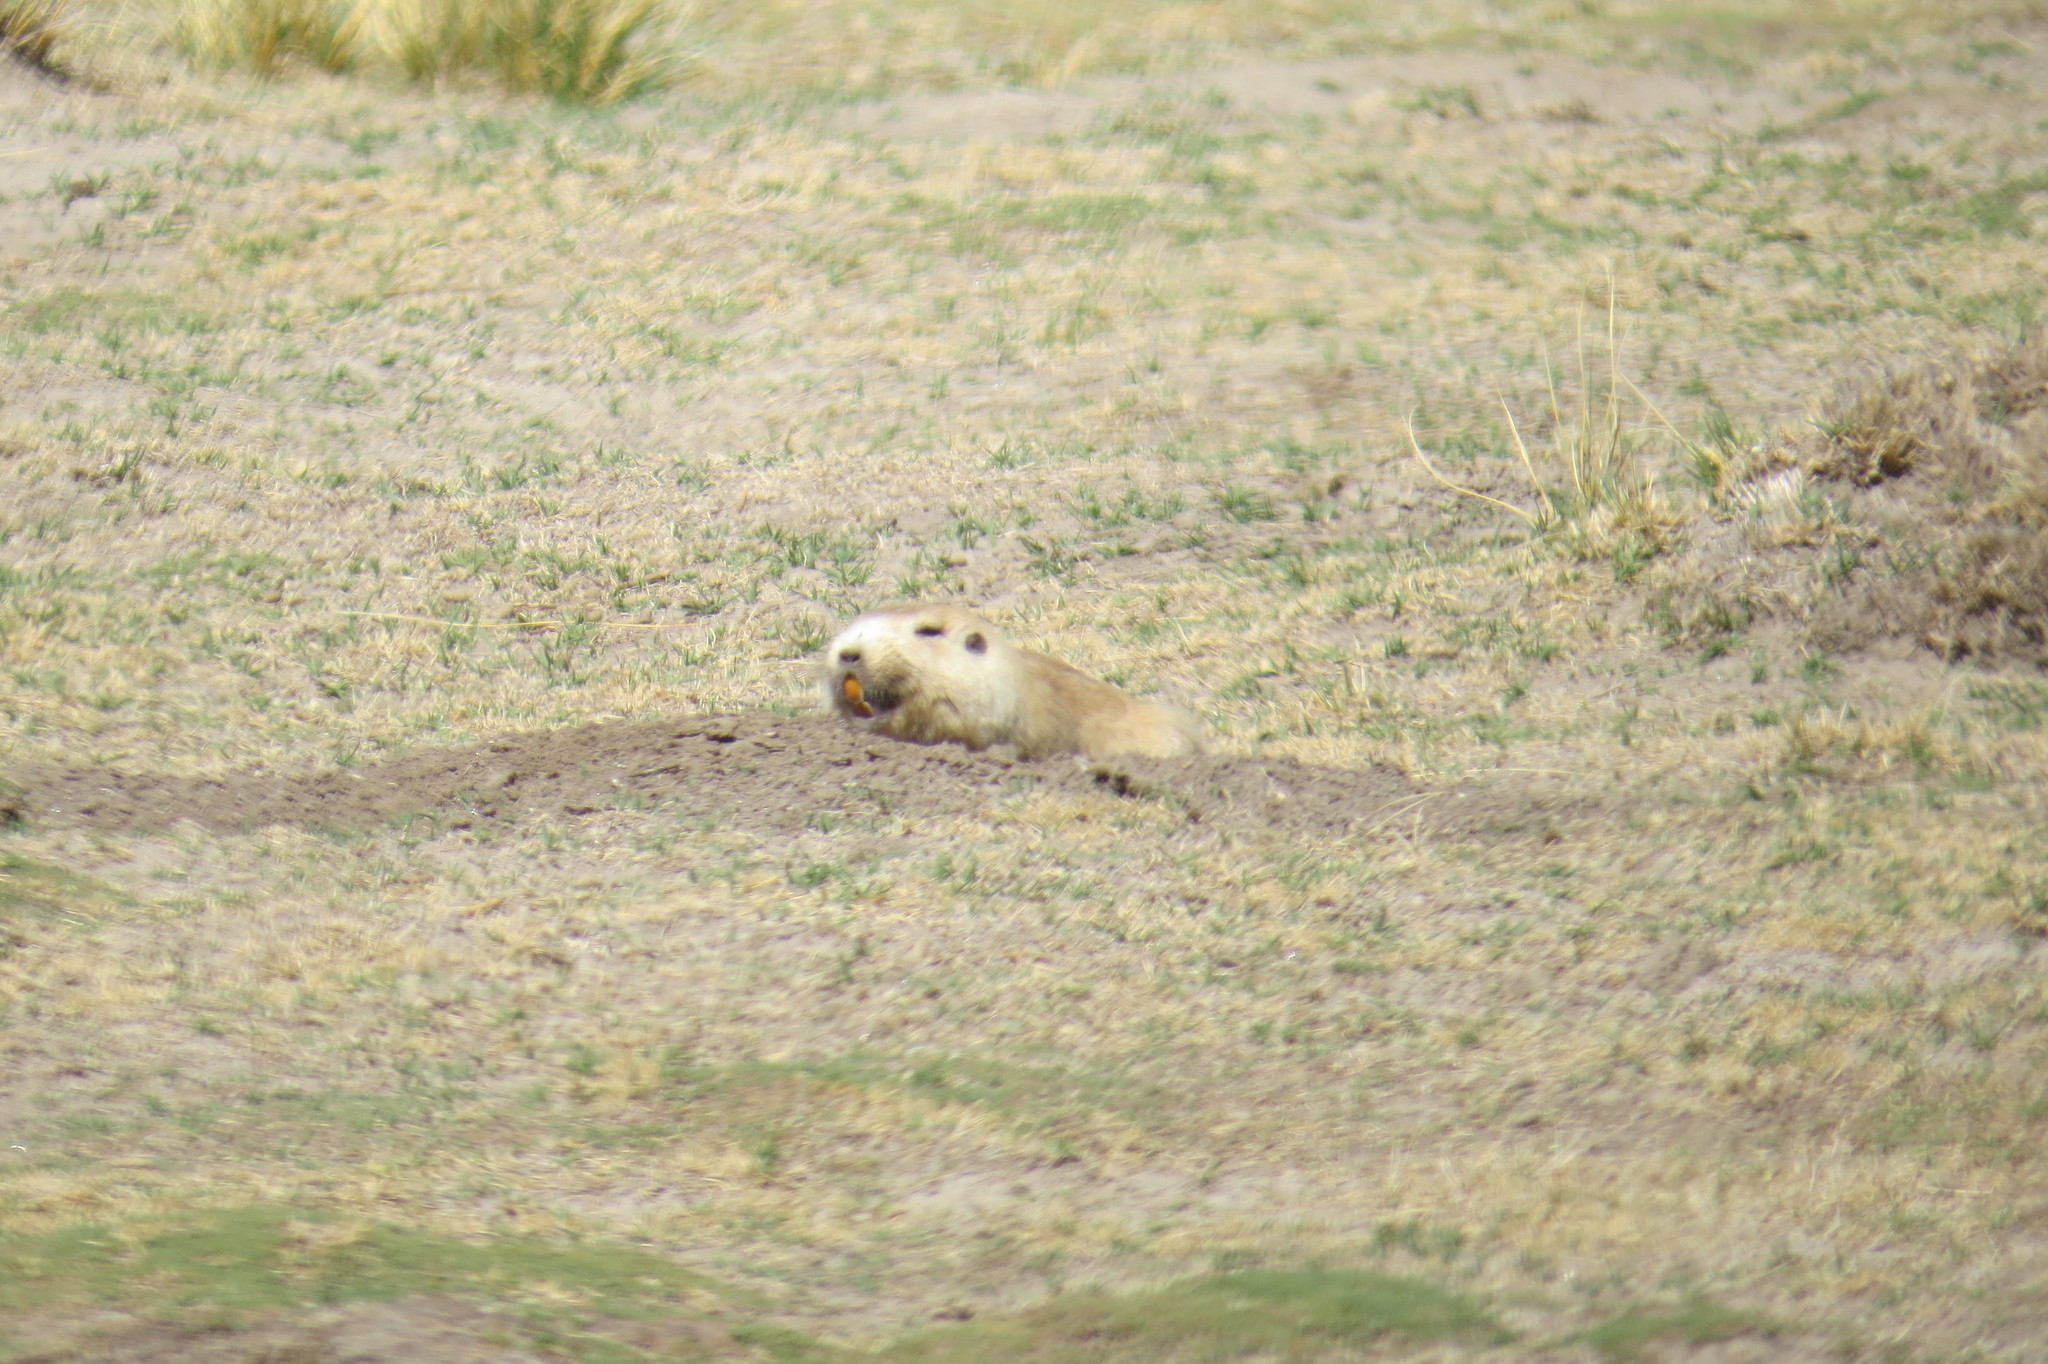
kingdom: Animalia
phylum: Chordata
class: Mammalia
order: Rodentia
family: Ctenomyidae
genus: Ctenomys
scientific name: Ctenomys opimus
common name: Highland tuco-tuco
